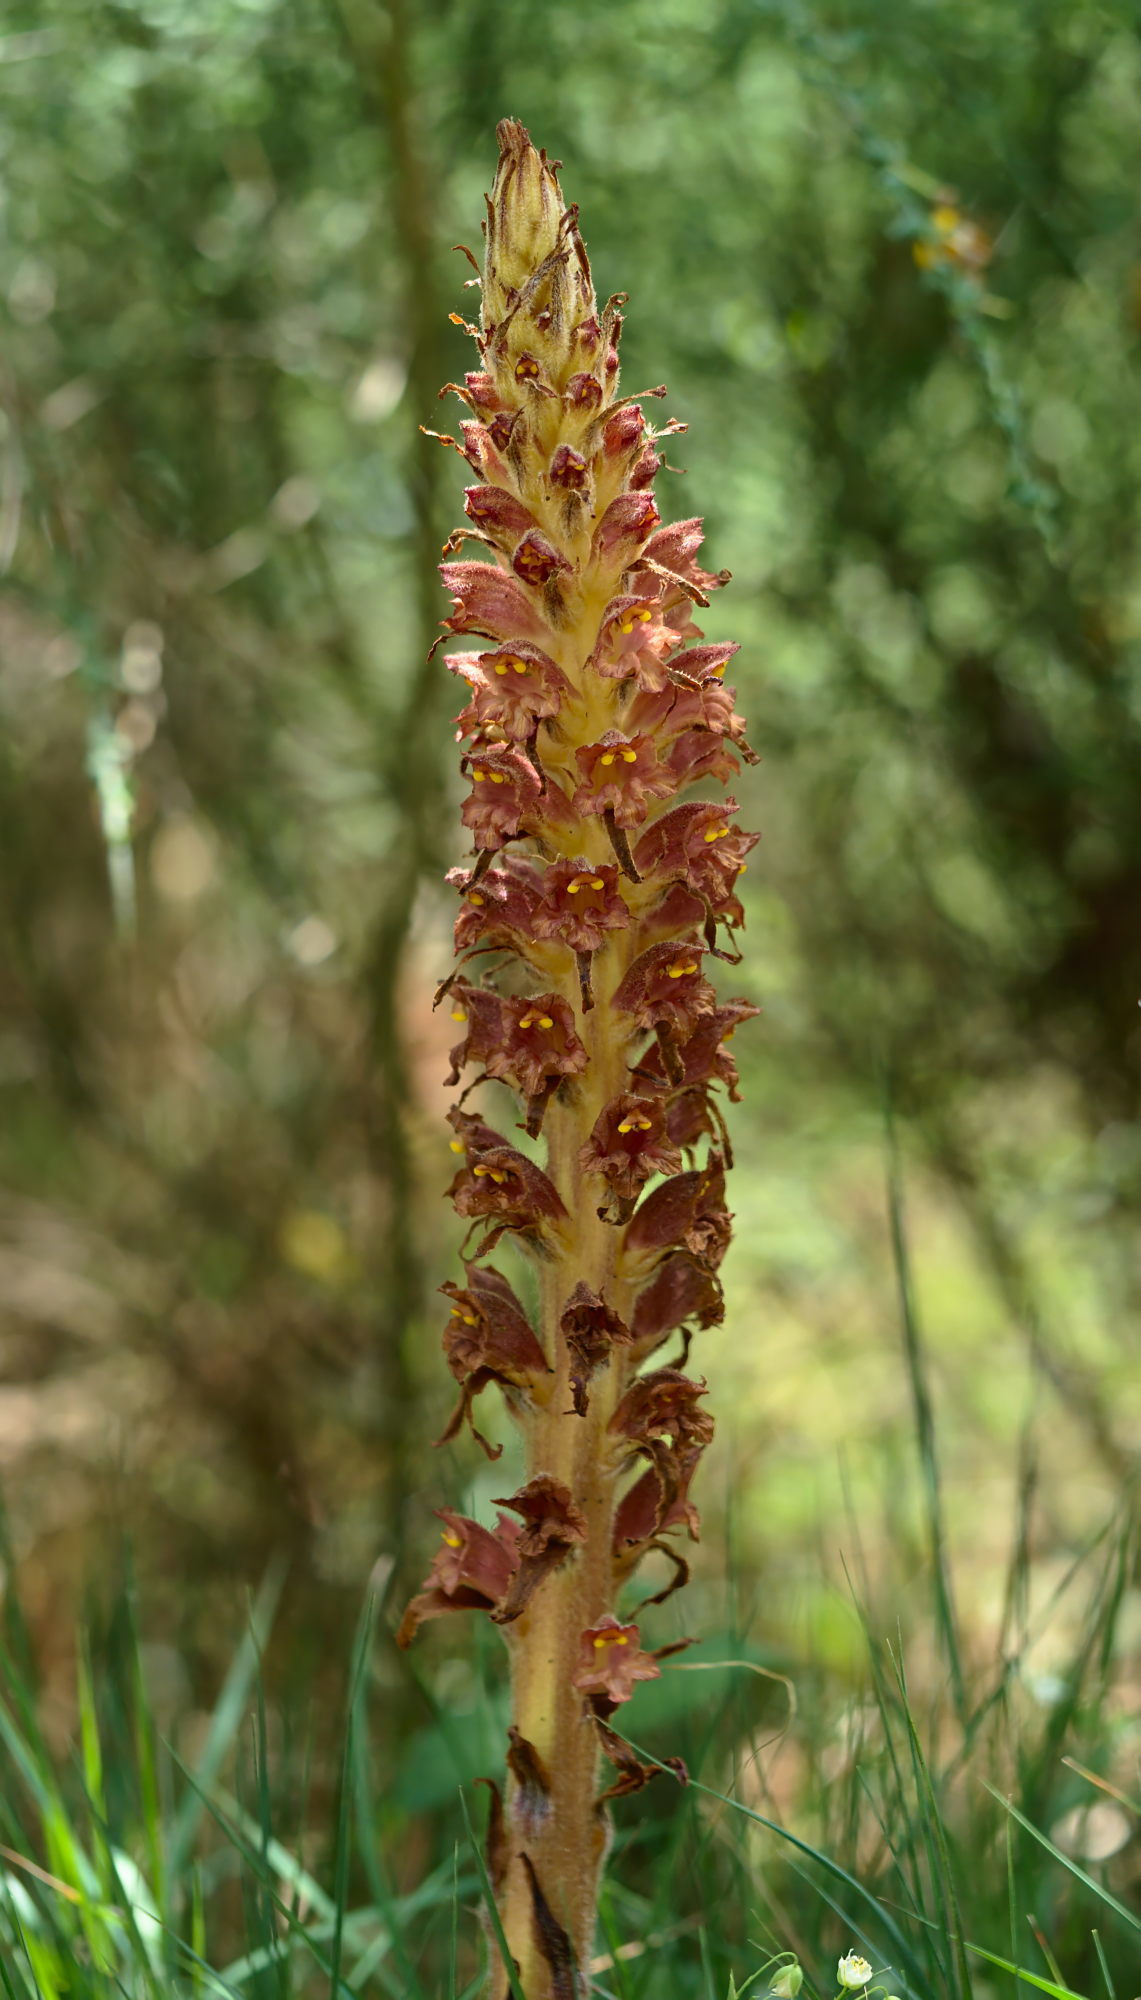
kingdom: Plantae
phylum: Tracheophyta
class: Magnoliopsida
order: Lamiales
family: Orobanchaceae
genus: Orobanche
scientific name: Orobanche rapum-genistae
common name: Greater broomrape
